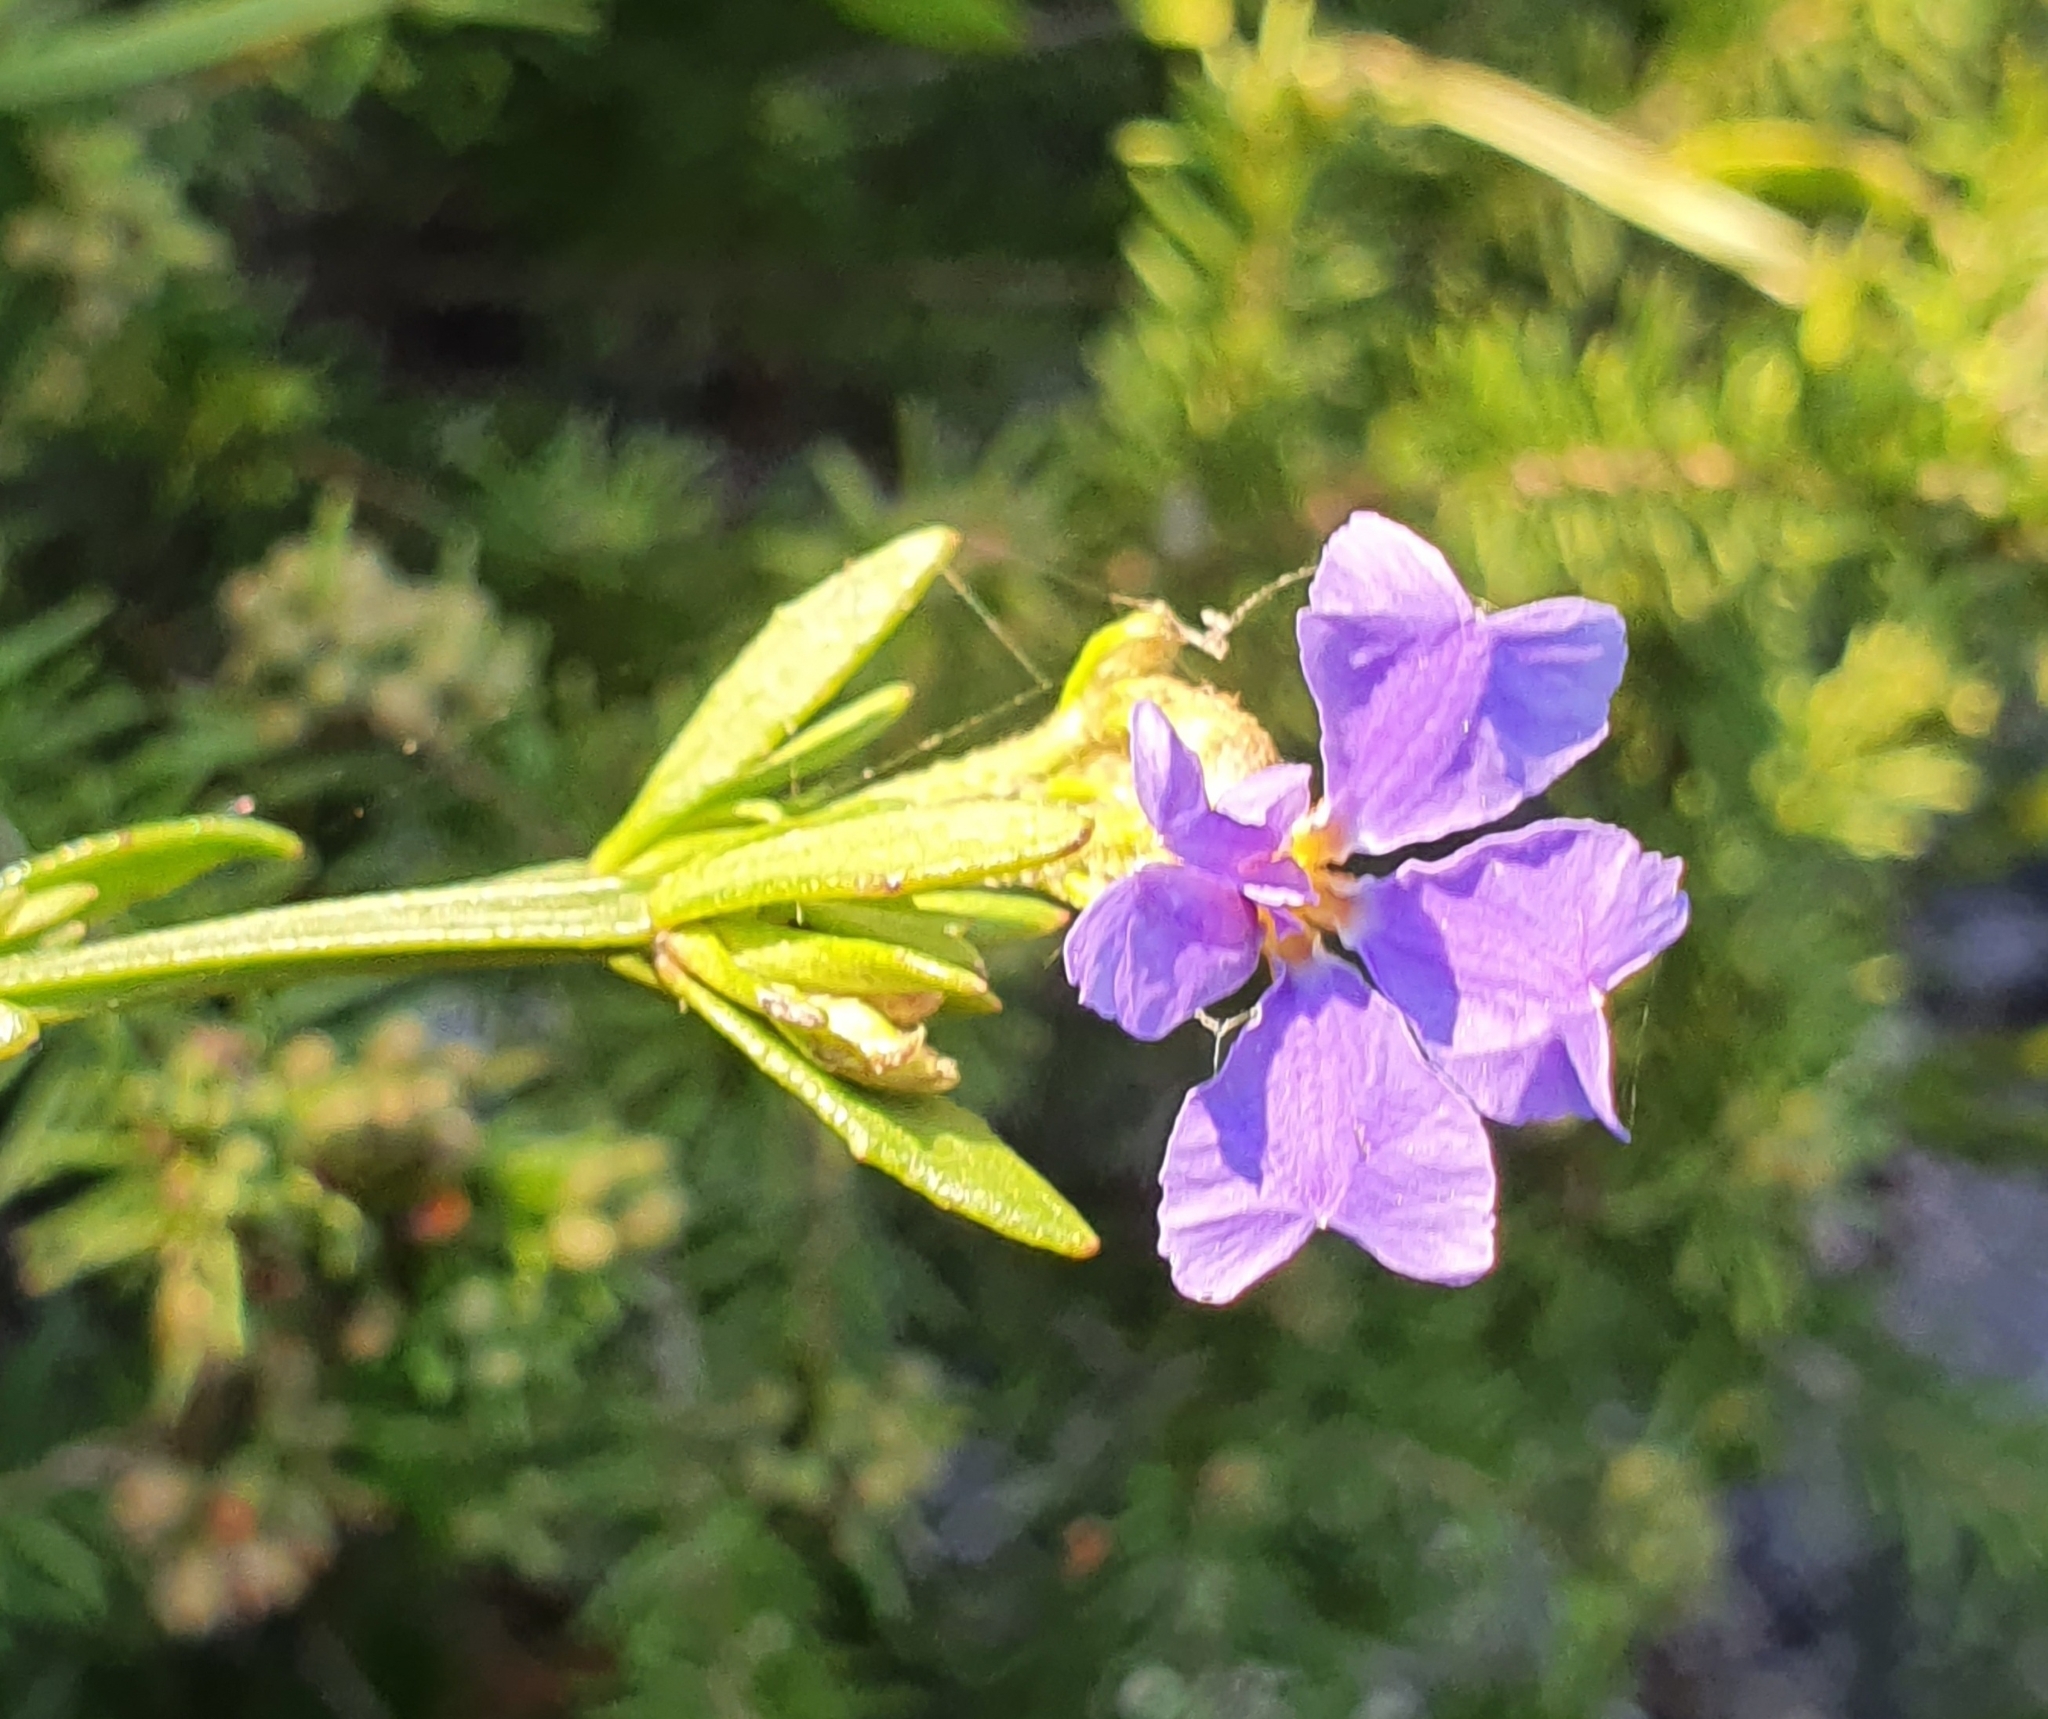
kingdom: Plantae
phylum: Tracheophyta
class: Magnoliopsida
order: Asterales
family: Goodeniaceae
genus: Dampiera
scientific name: Dampiera stricta
